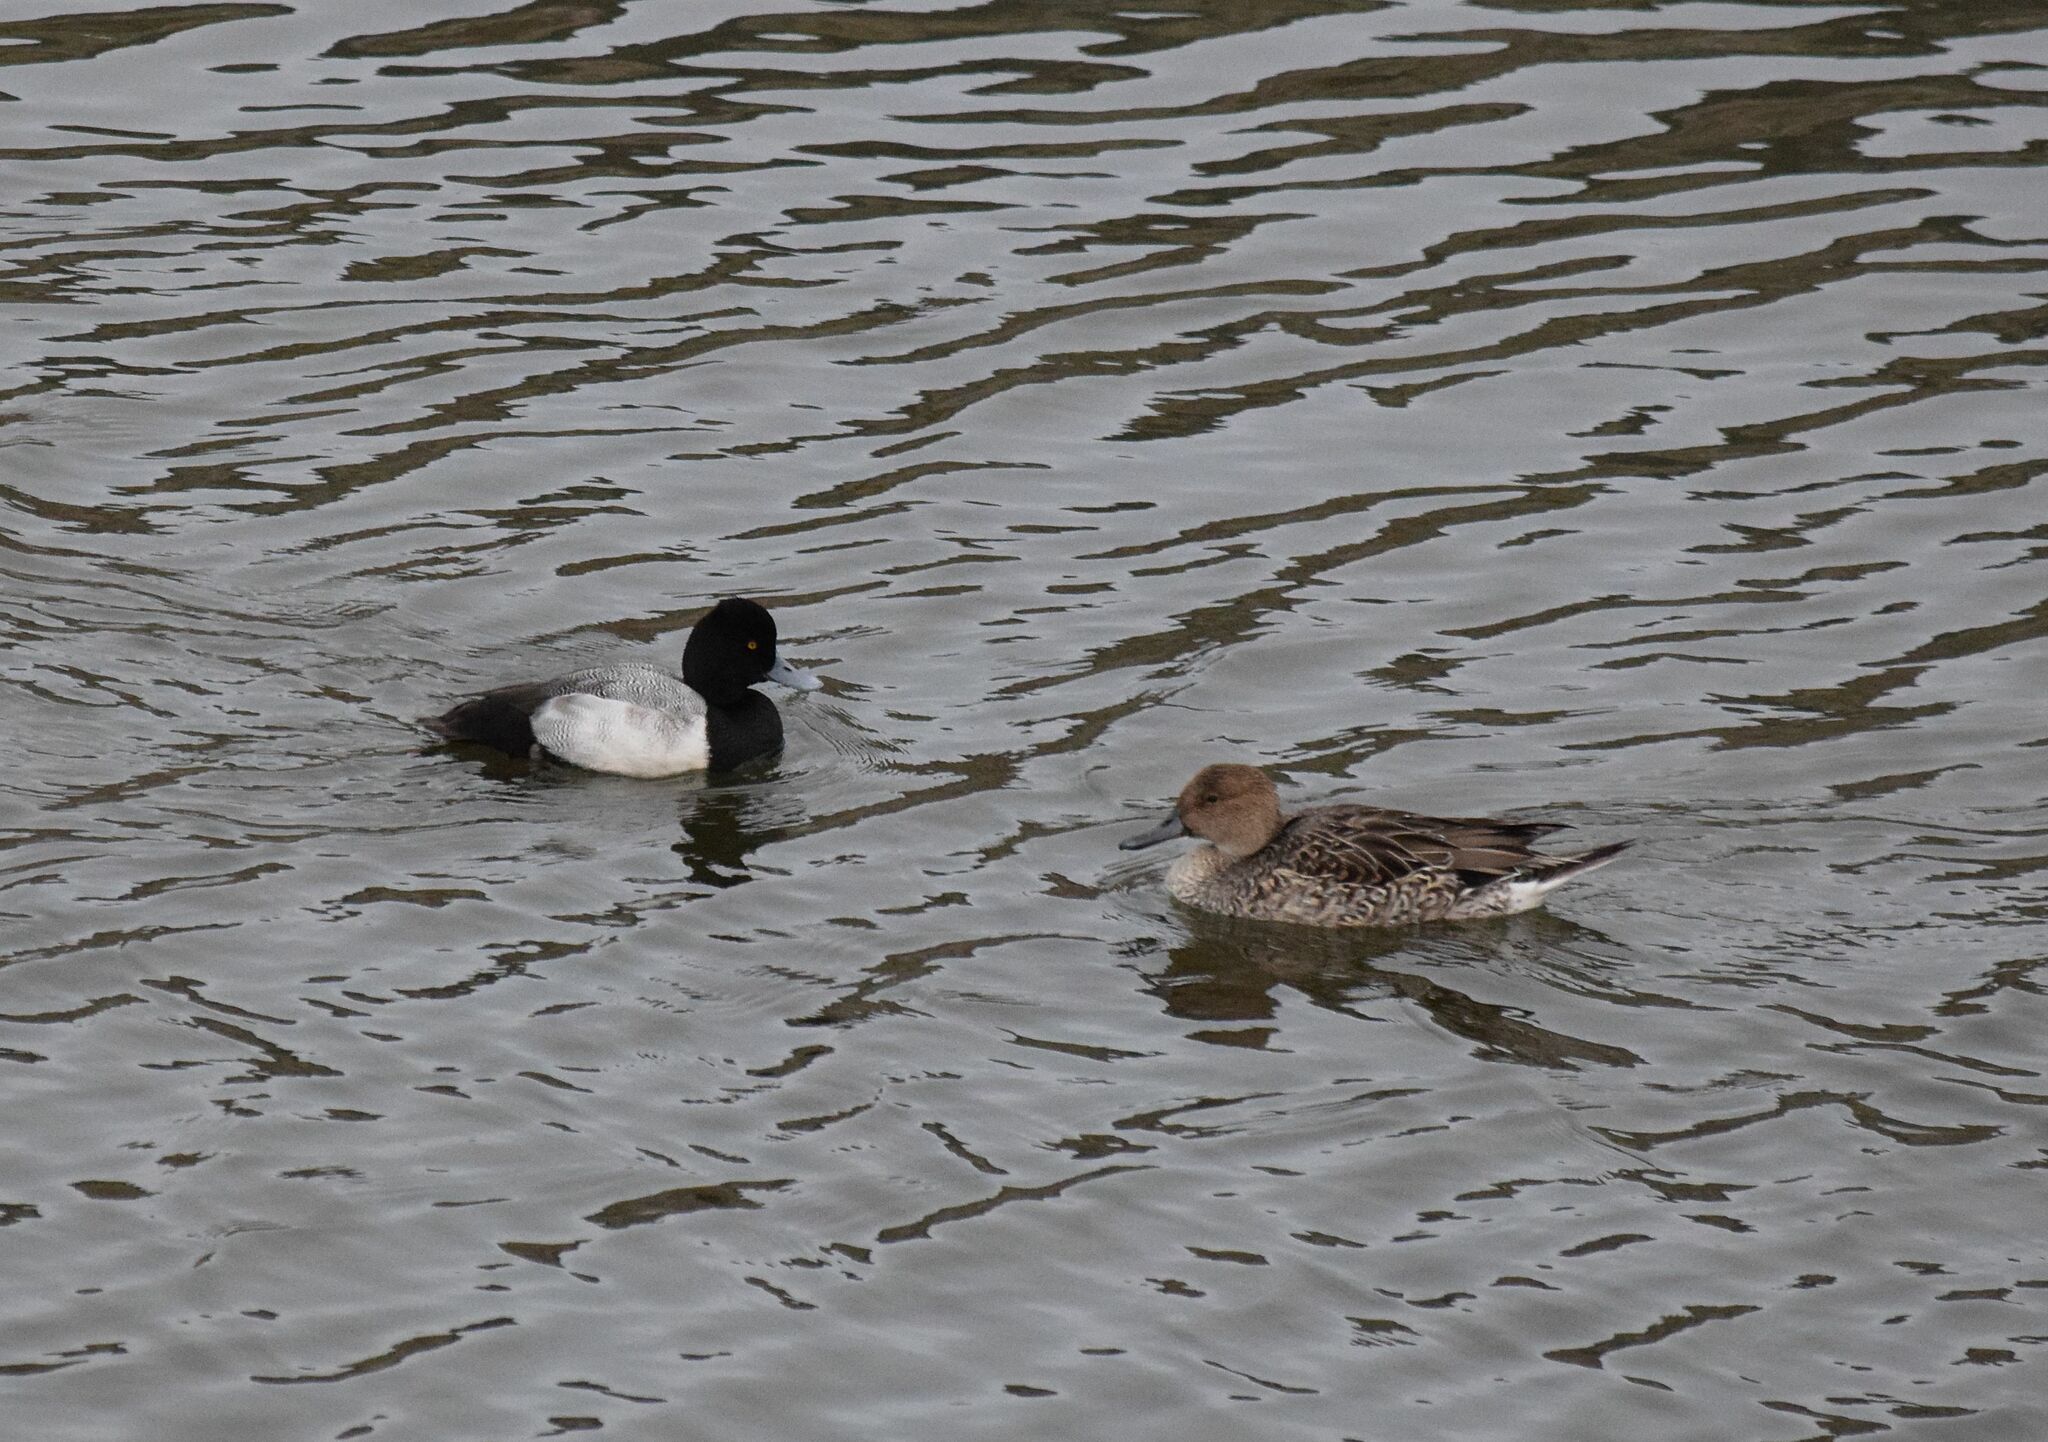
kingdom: Animalia
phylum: Chordata
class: Aves
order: Anseriformes
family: Anatidae
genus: Aythya
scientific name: Aythya affinis
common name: Lesser scaup
